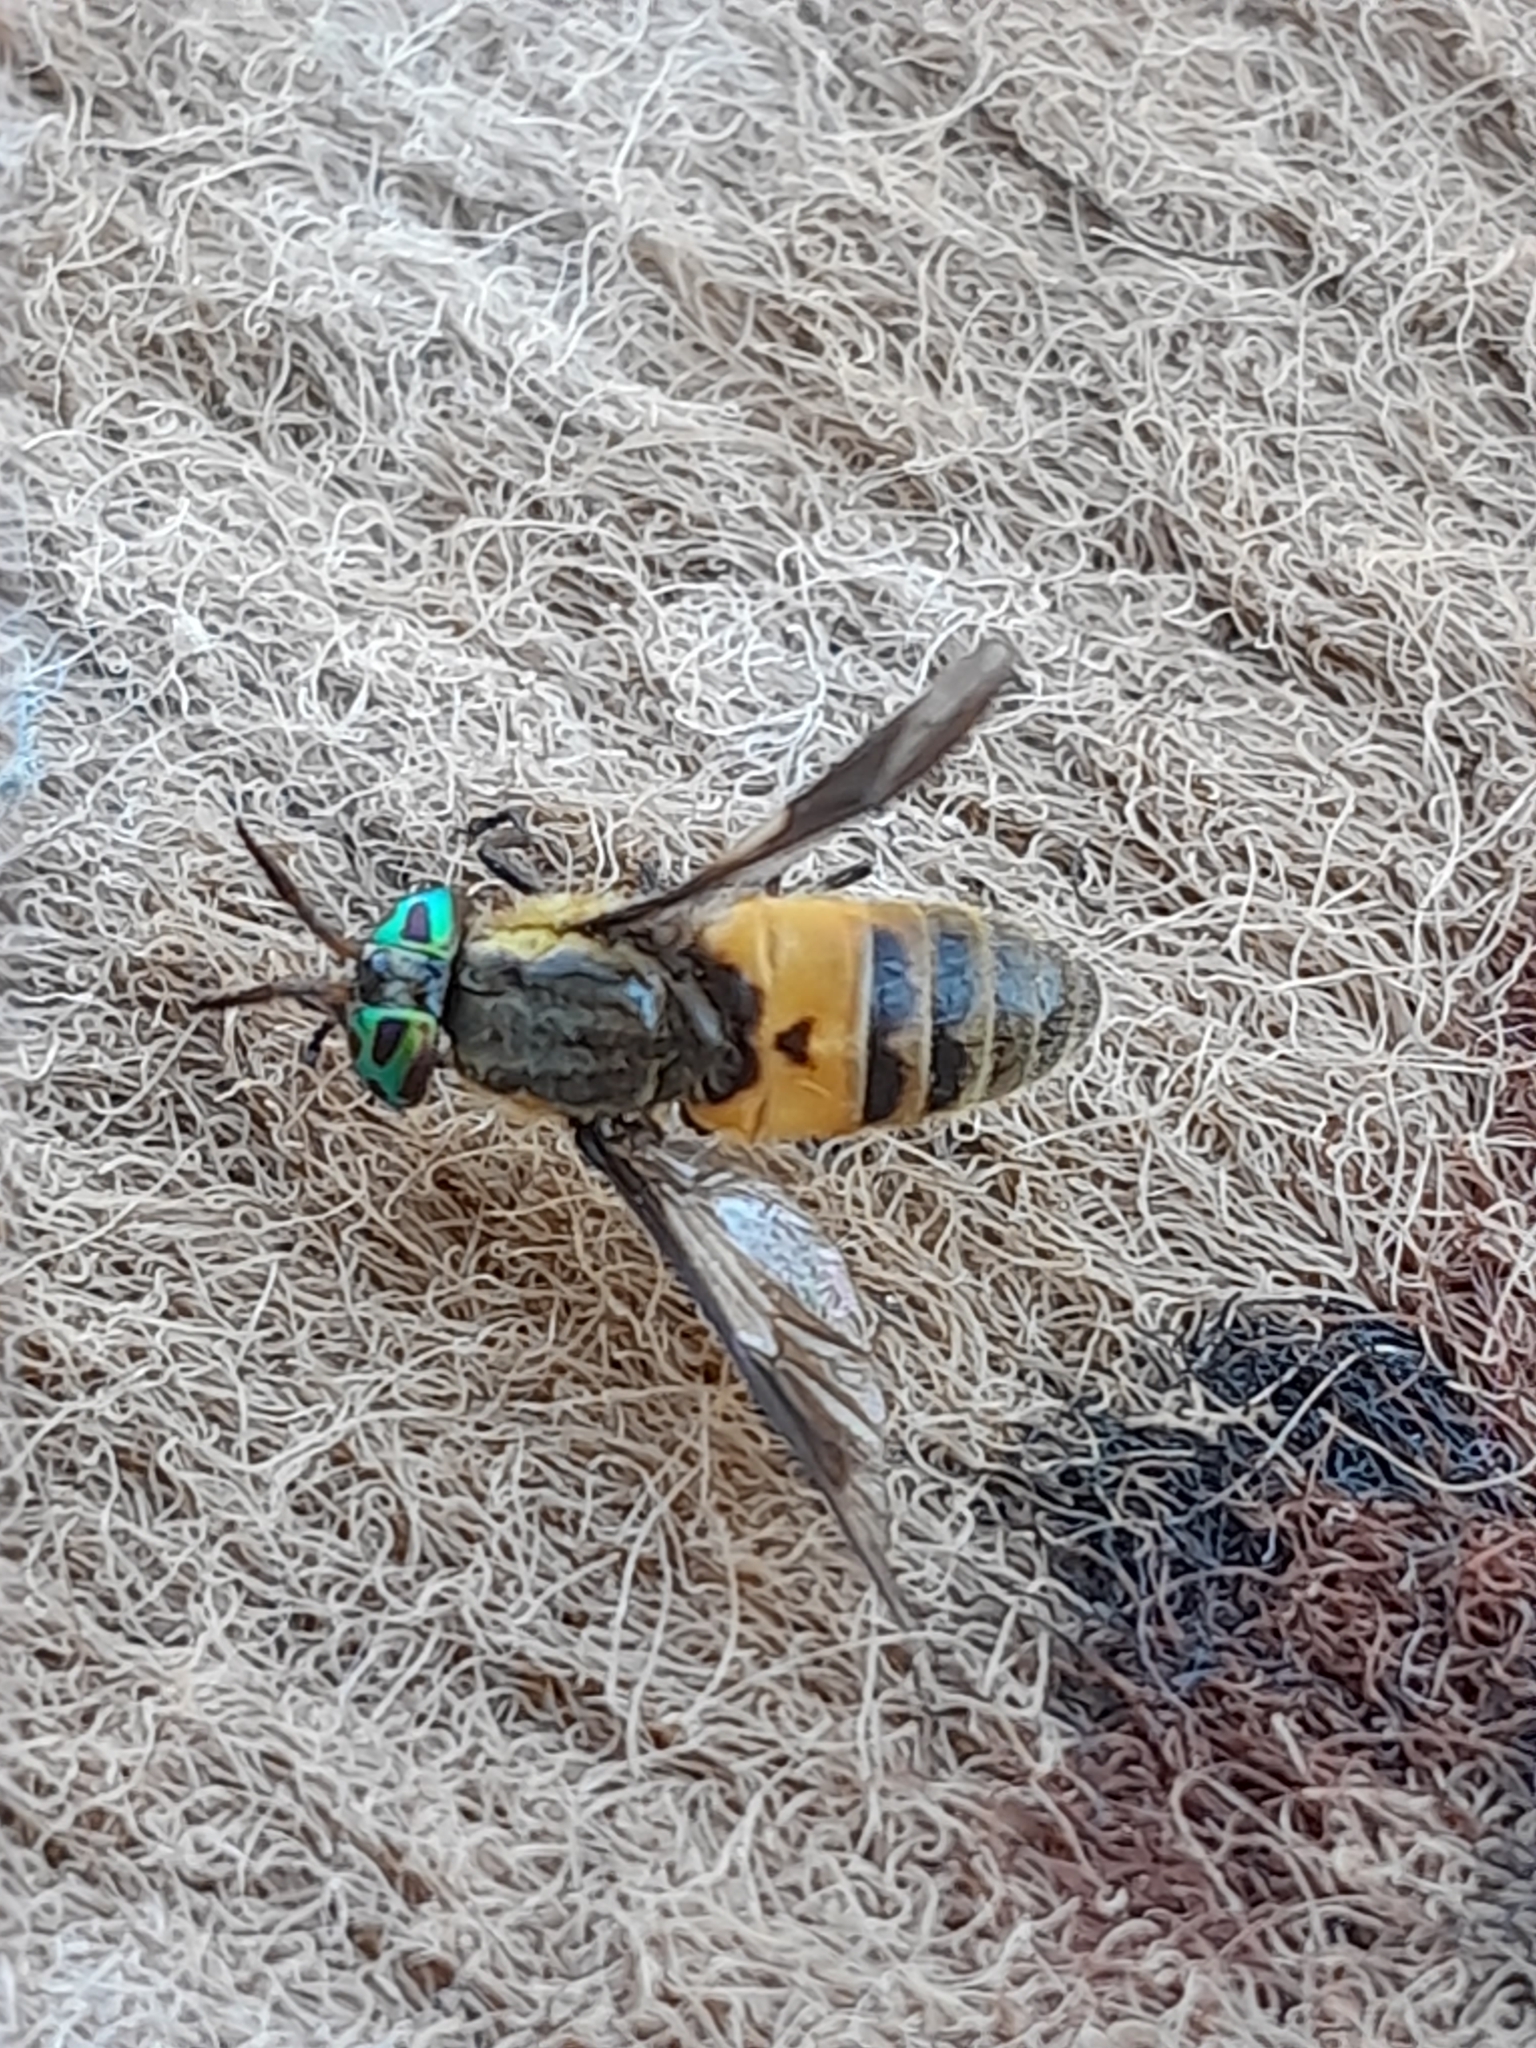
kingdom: Animalia
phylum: Arthropoda
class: Insecta
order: Diptera
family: Tabanidae
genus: Chrysops
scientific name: Chrysops viduatus
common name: Square-spot deerfly
